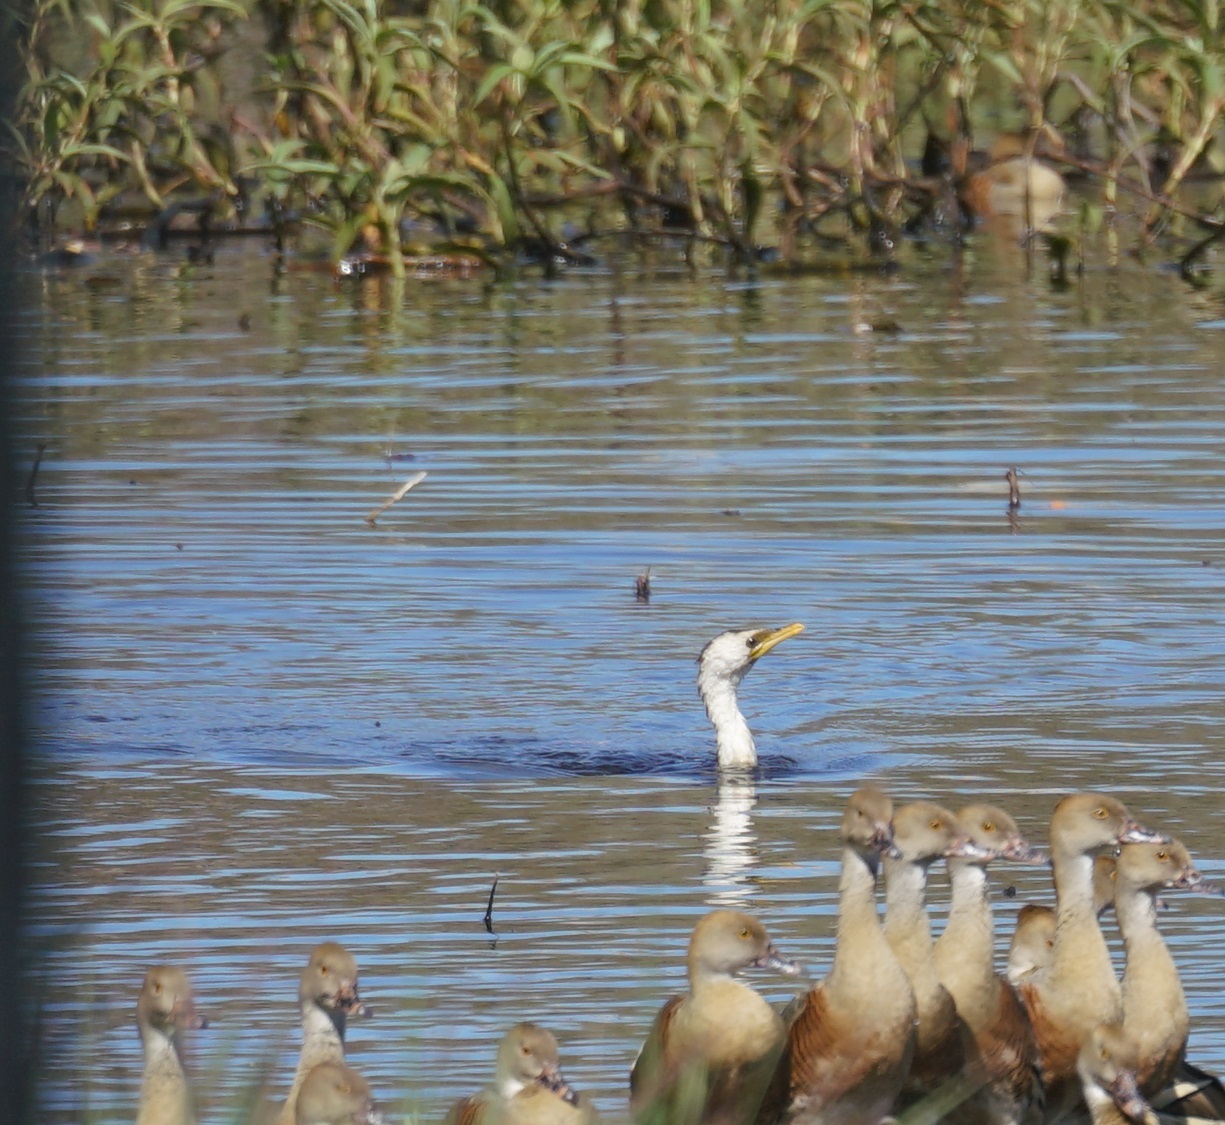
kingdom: Animalia
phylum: Chordata
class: Aves
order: Suliformes
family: Phalacrocoracidae
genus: Microcarbo
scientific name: Microcarbo melanoleucos
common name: Little pied cormorant
